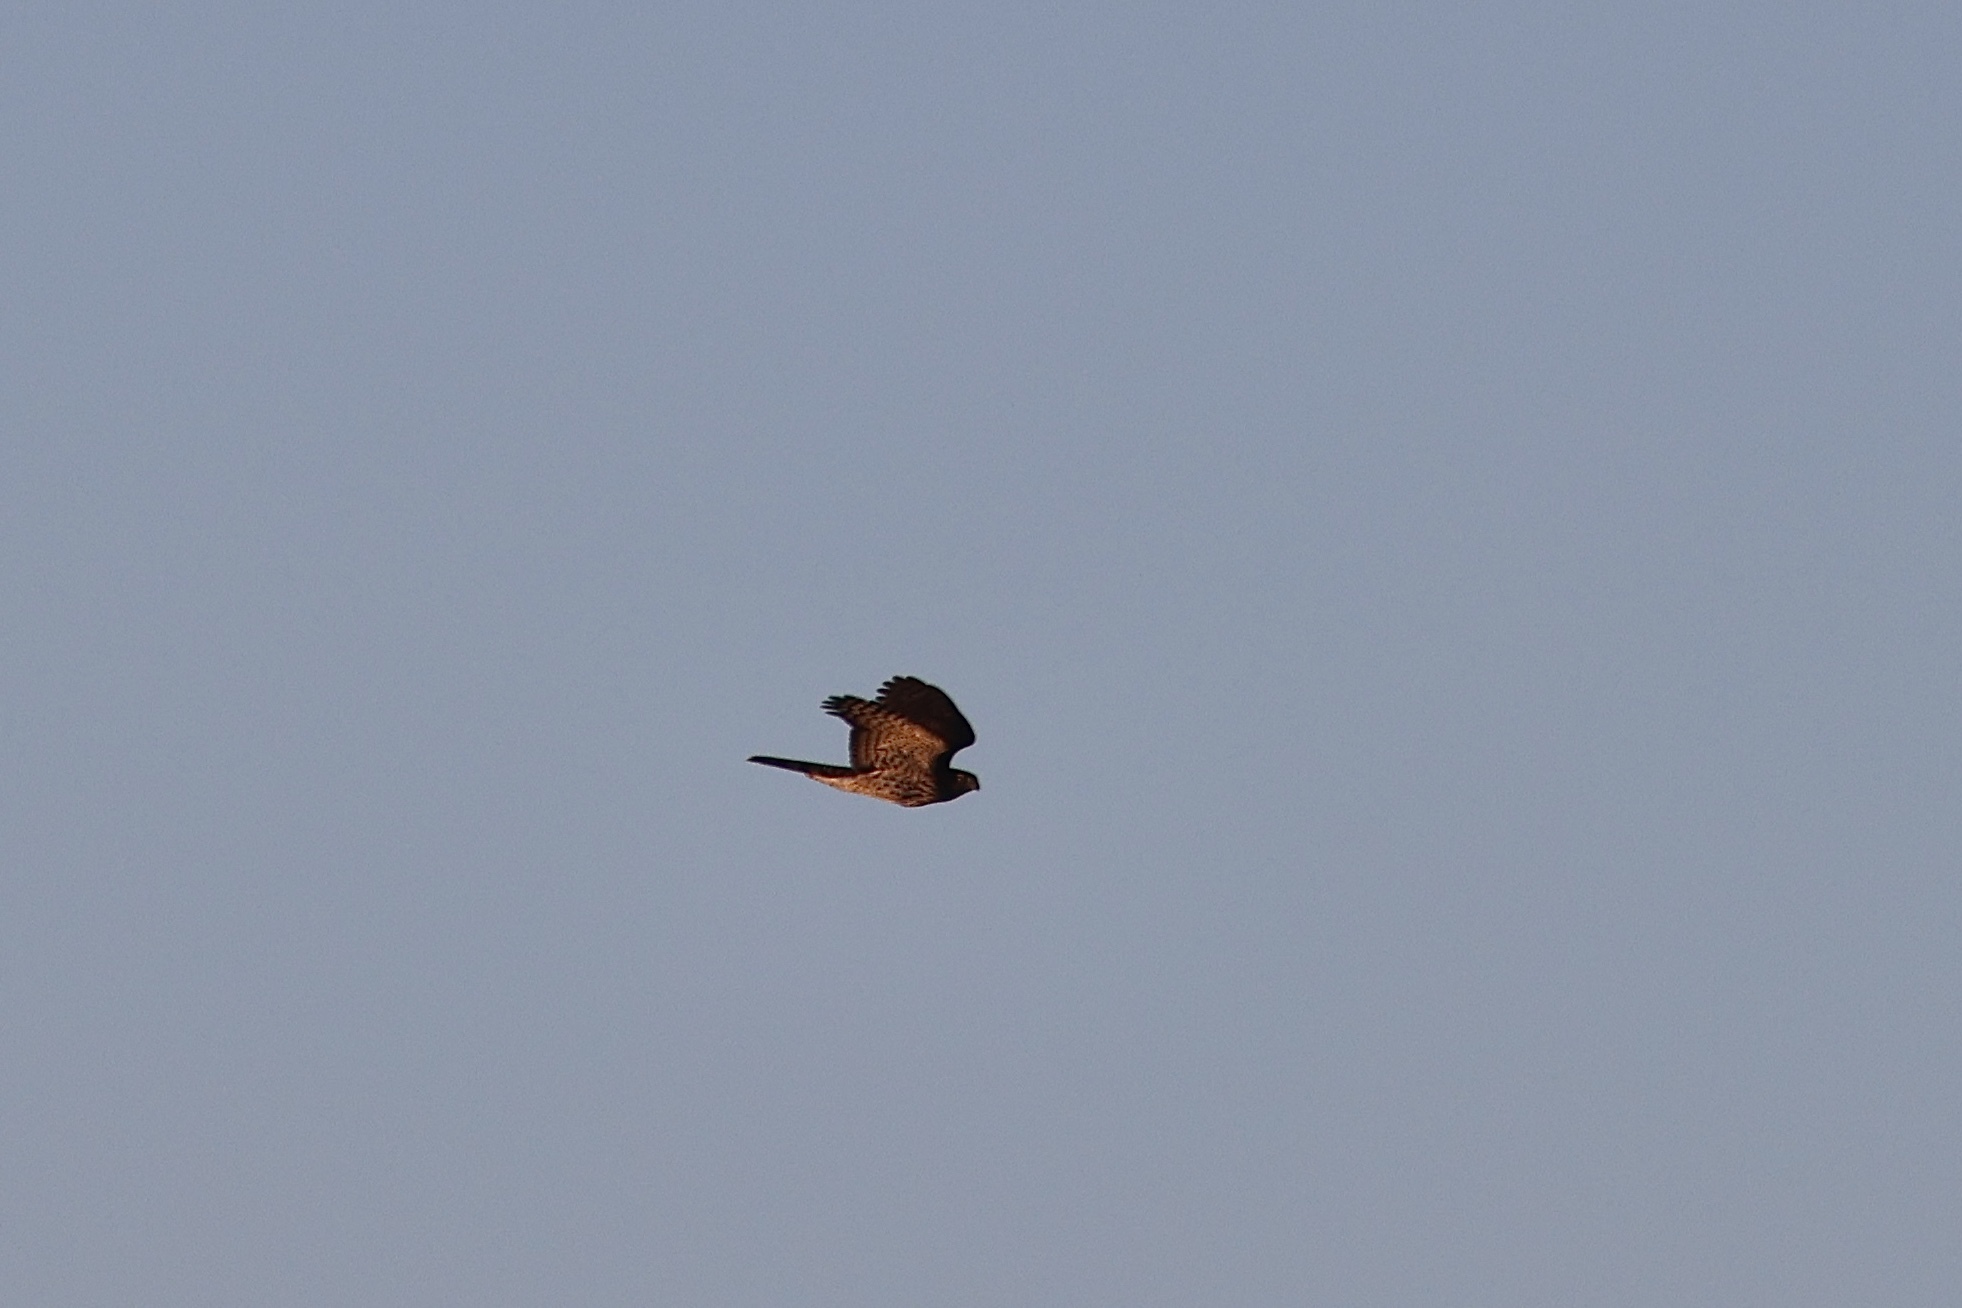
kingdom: Animalia
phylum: Chordata
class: Aves
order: Accipitriformes
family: Accipitridae
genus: Accipiter
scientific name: Accipiter cooperii
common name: Cooper's hawk
